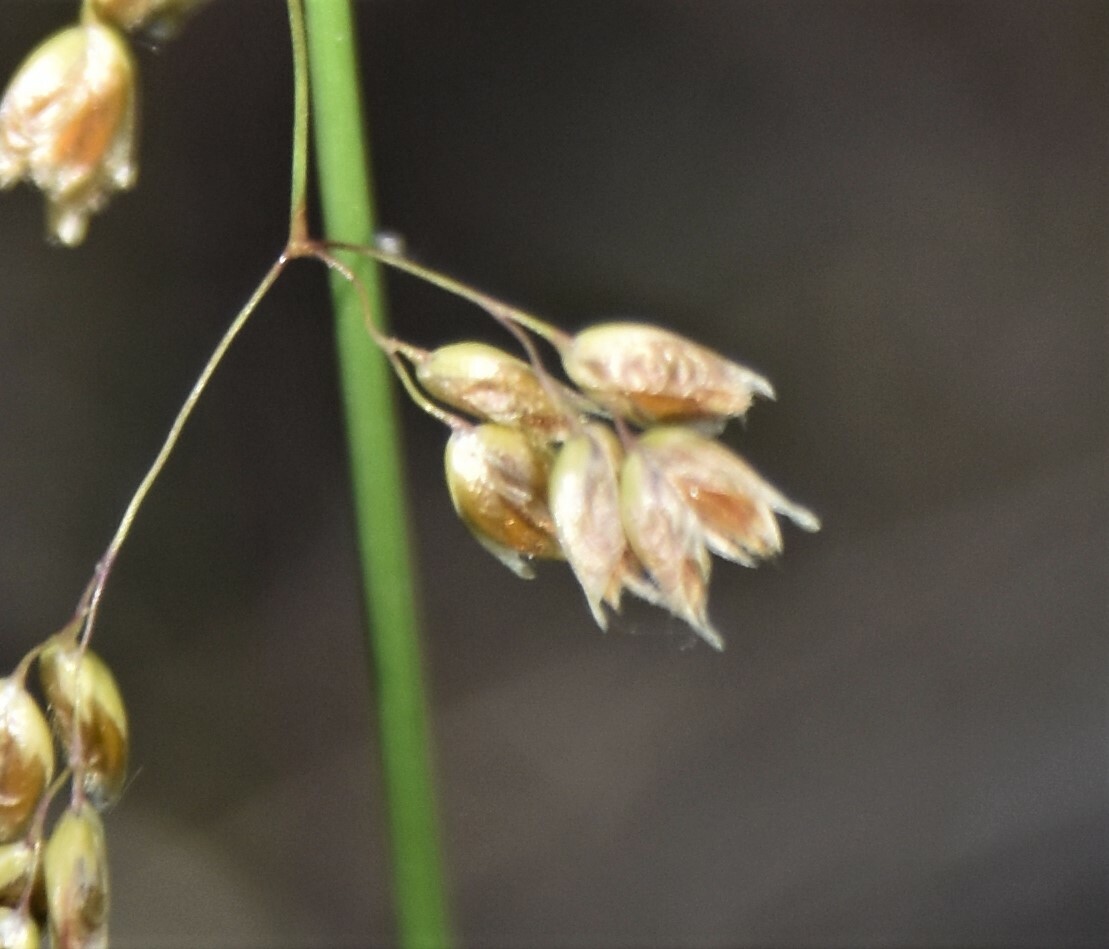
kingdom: Plantae
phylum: Tracheophyta
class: Liliopsida
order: Poales
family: Poaceae
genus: Anthoxanthum
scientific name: Anthoxanthum nitens
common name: Holy grass
